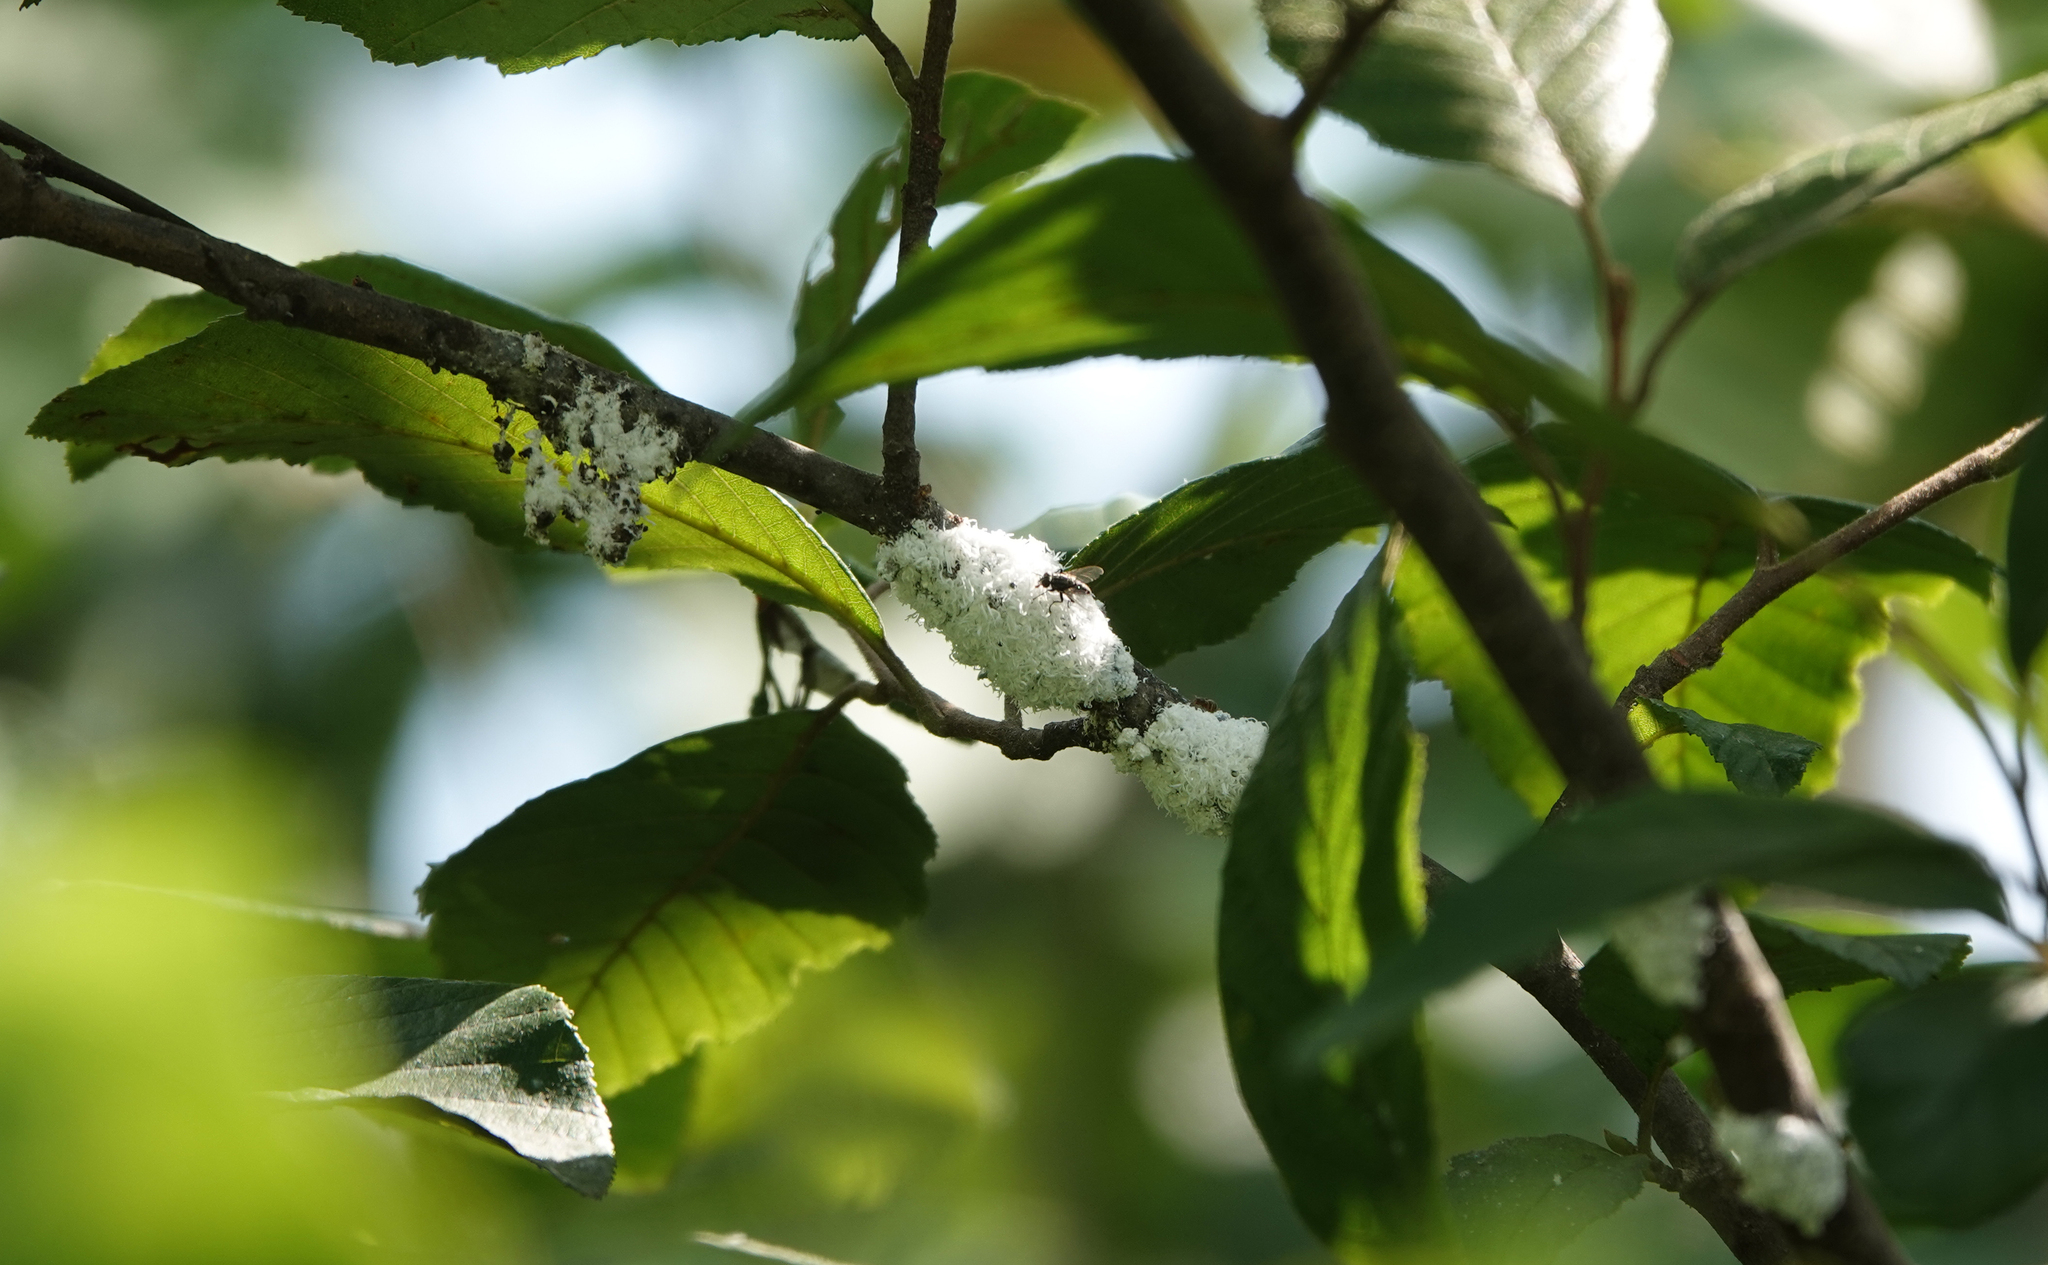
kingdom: Animalia
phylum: Arthropoda
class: Insecta
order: Hemiptera
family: Aphididae
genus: Prociphilus
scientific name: Prociphilus tessellatus
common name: Woolly alder aphid
